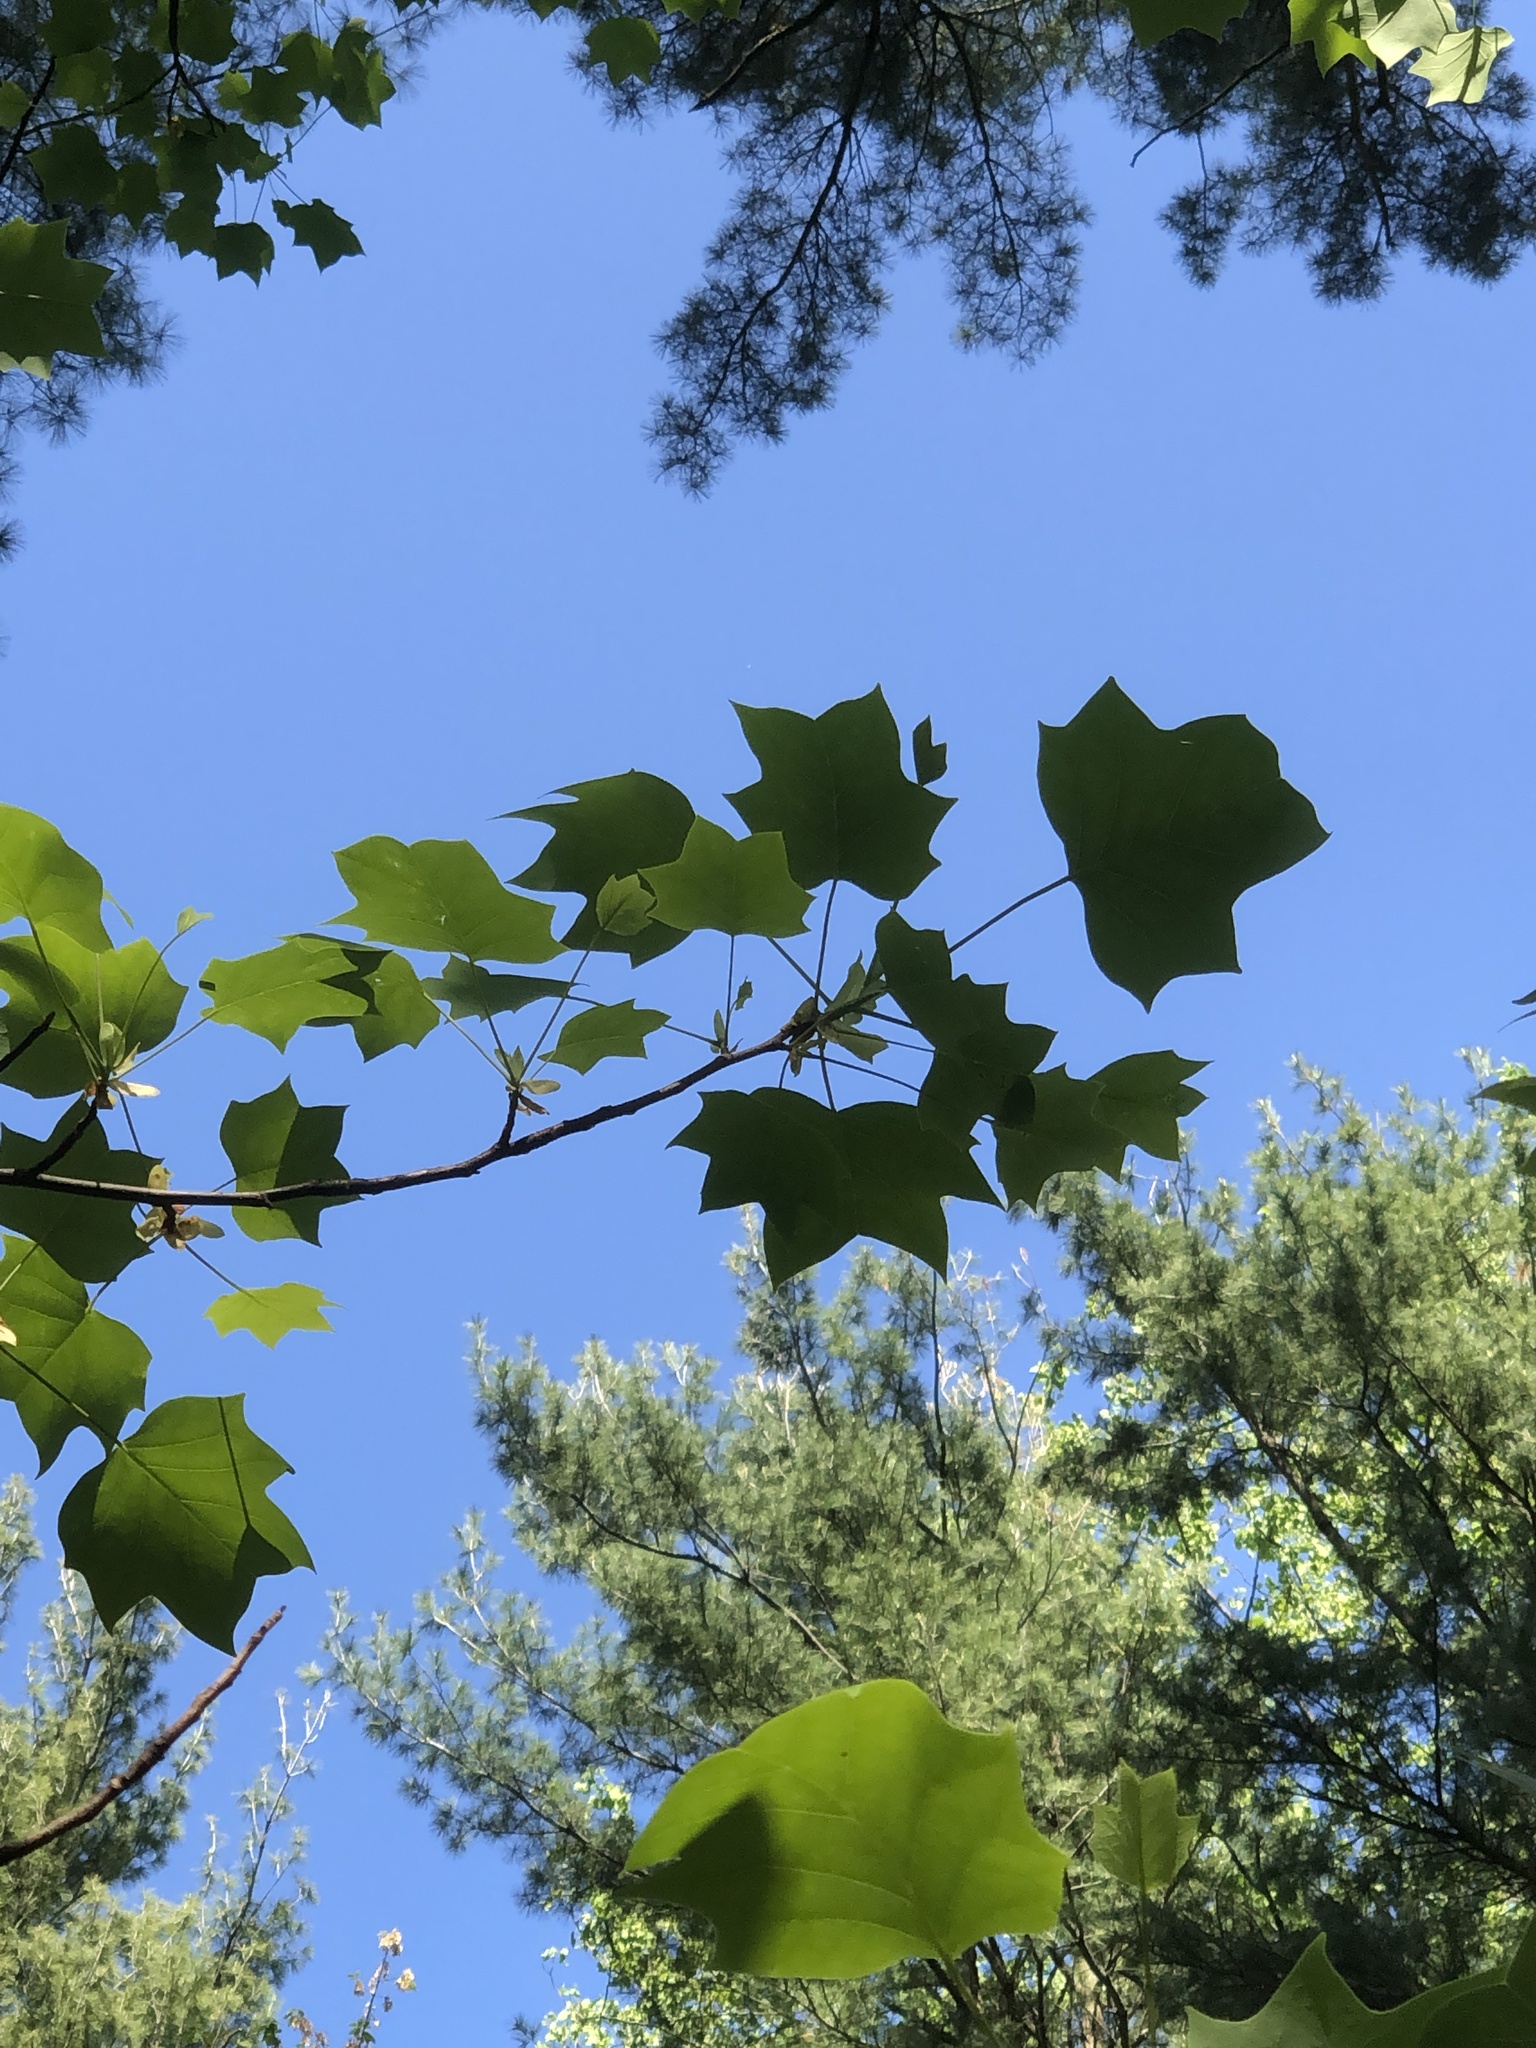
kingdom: Plantae
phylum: Tracheophyta
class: Magnoliopsida
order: Magnoliales
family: Magnoliaceae
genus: Liriodendron
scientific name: Liriodendron tulipifera
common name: Tulip tree
